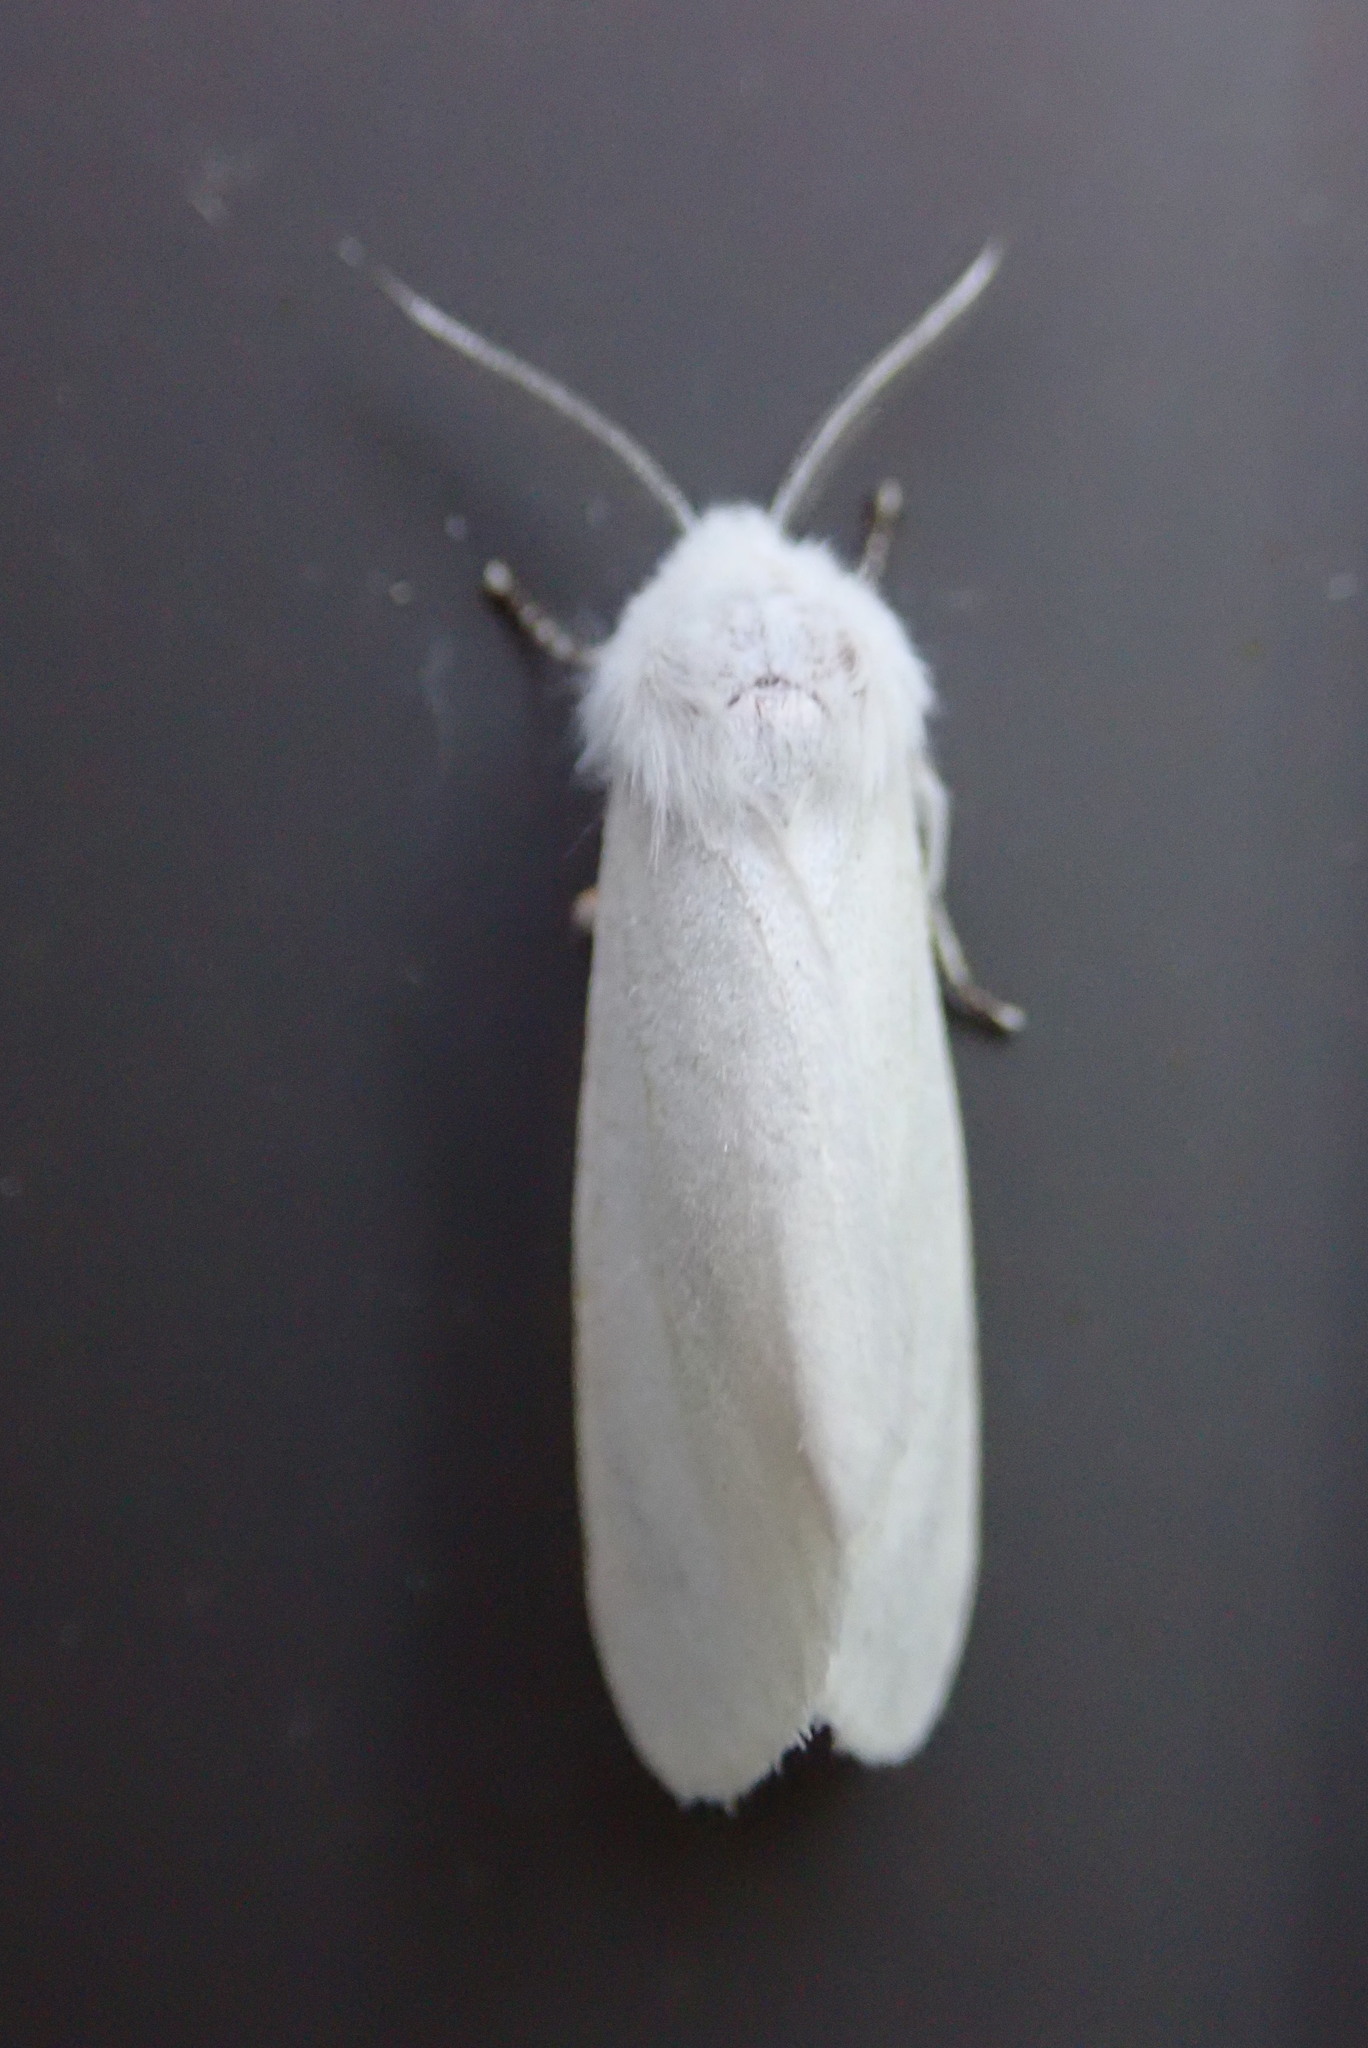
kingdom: Animalia
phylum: Arthropoda
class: Insecta
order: Lepidoptera
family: Erebidae
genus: Hyphantria
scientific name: Hyphantria cunea
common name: American white moth
